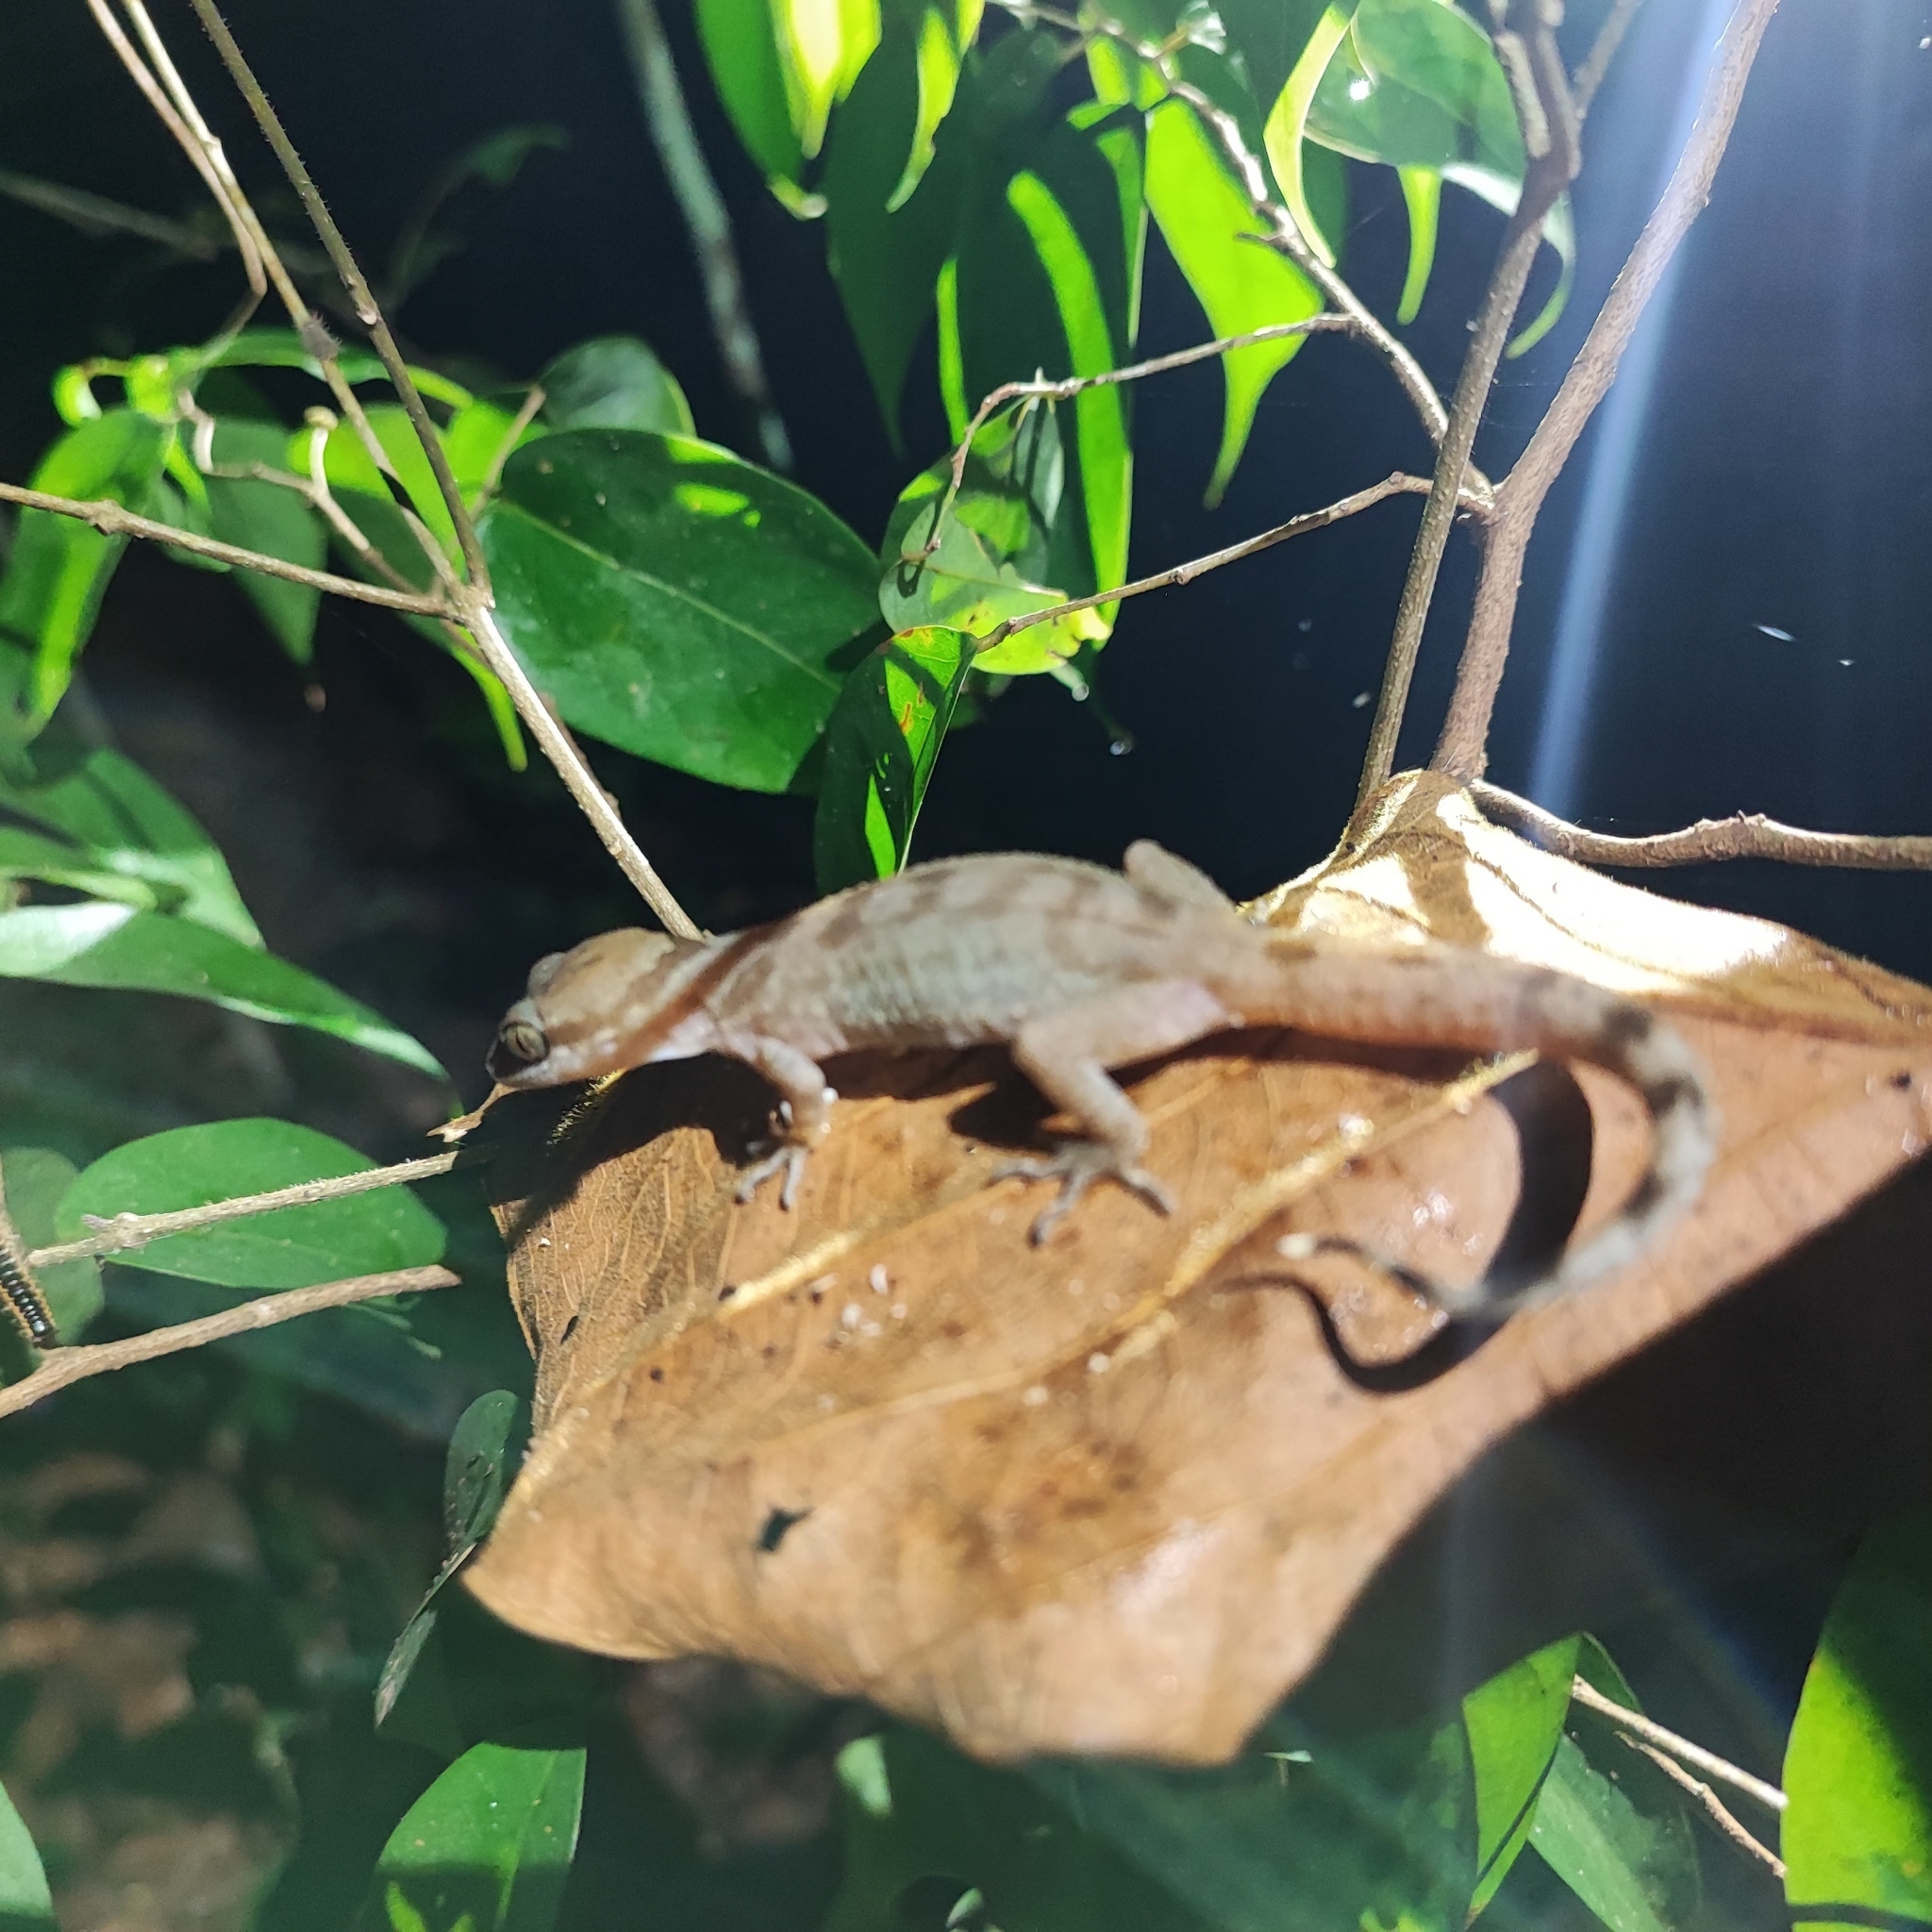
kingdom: Animalia
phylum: Chordata
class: Squamata
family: Gekkonidae
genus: Cyrtodactylus
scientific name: Cyrtodactylus cattienensis
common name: Cat tien bent-toed gecko
